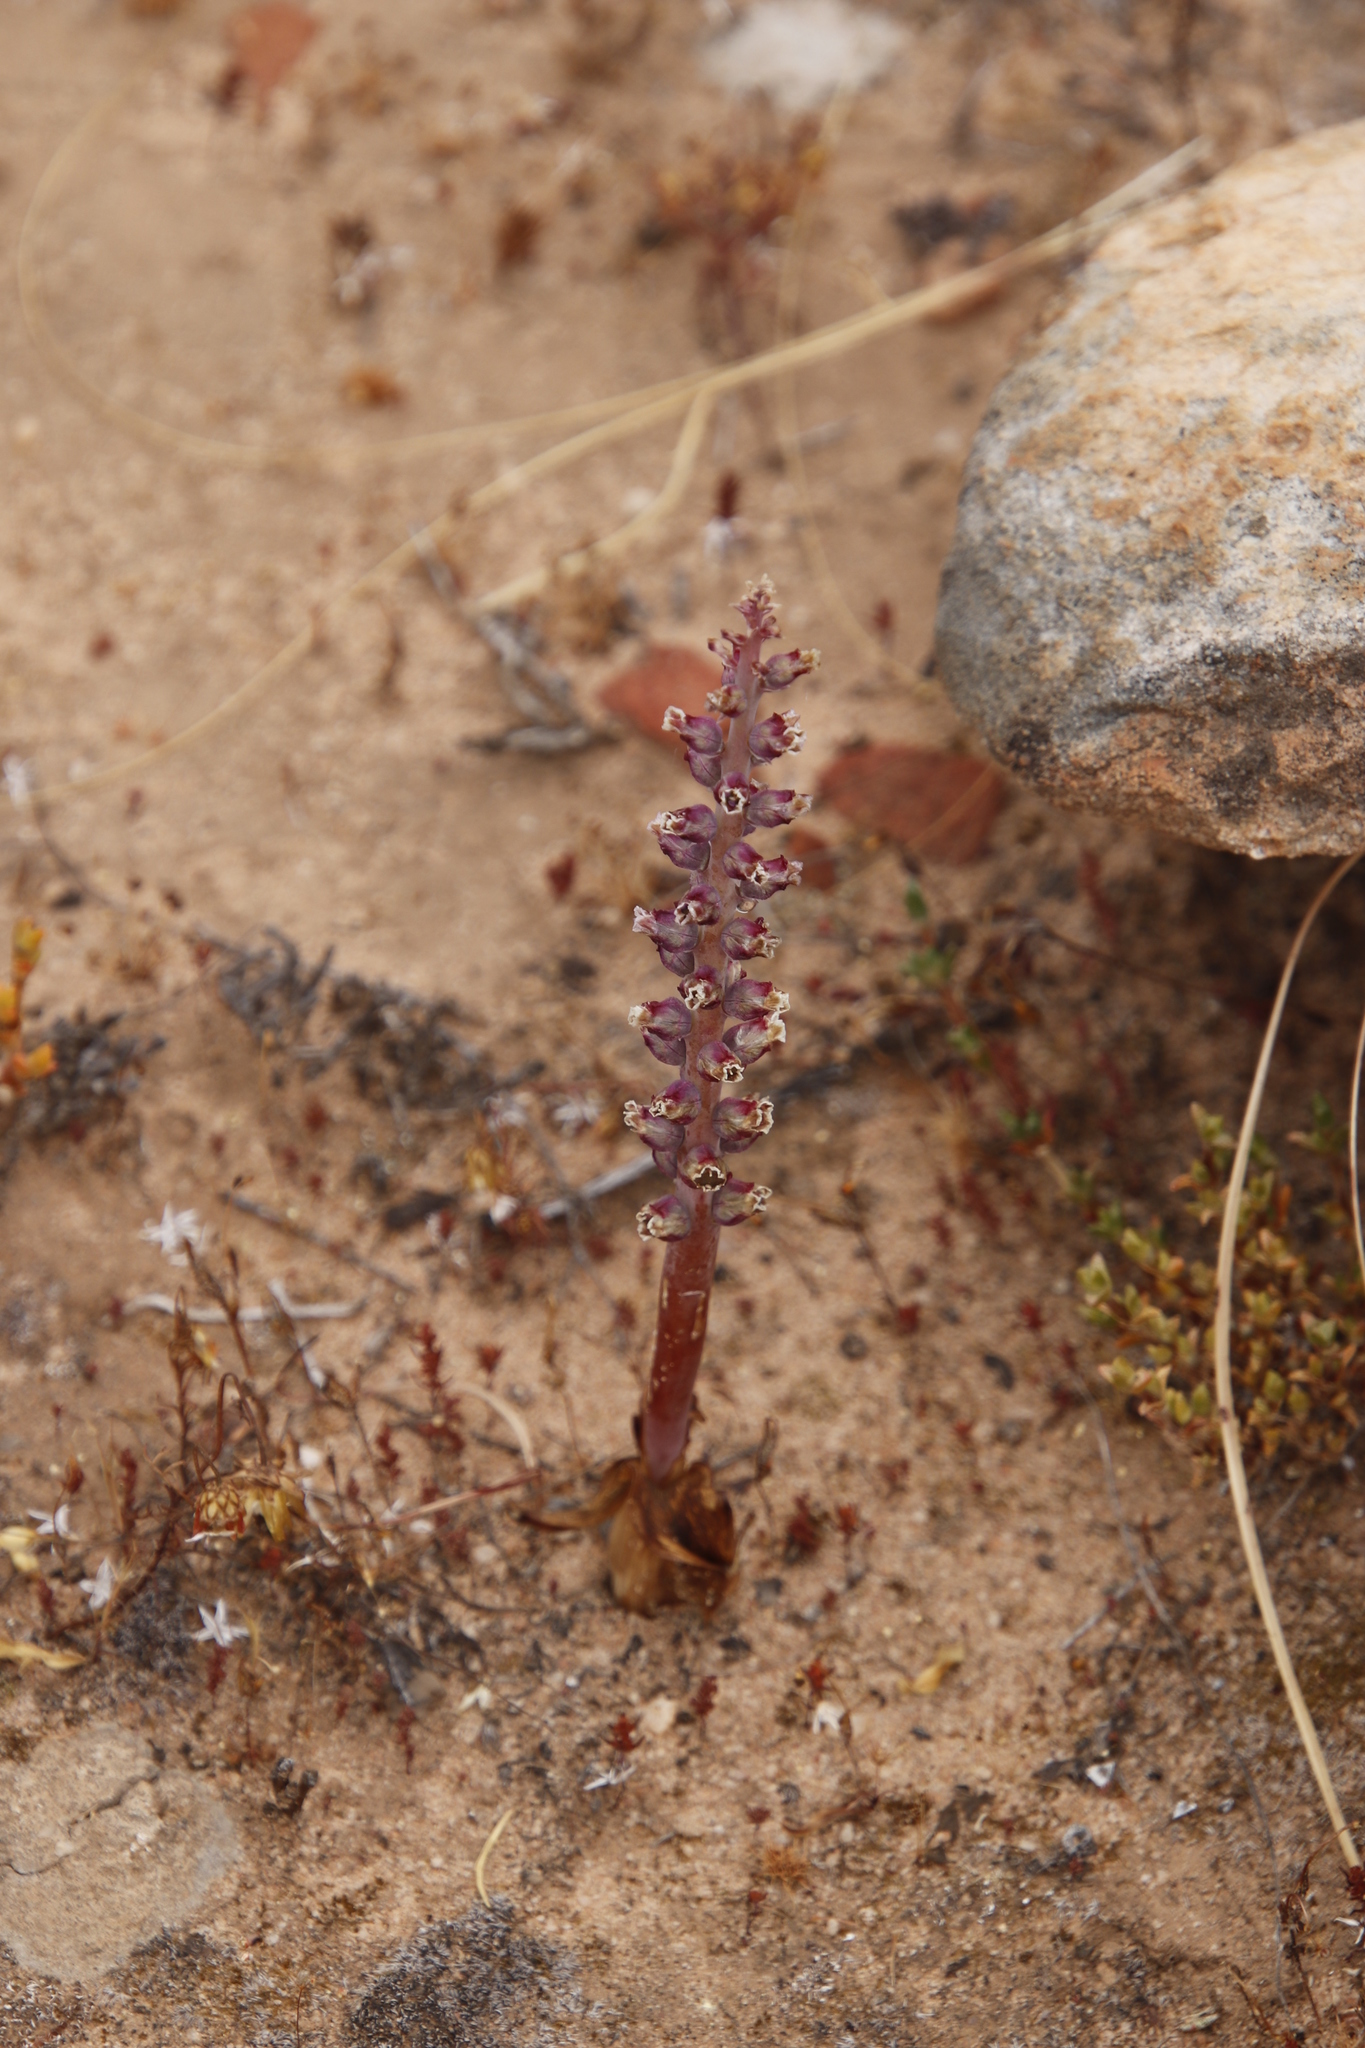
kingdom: Plantae
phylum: Tracheophyta
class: Liliopsida
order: Asparagales
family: Asparagaceae
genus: Lachenalia
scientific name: Lachenalia suaveolens
